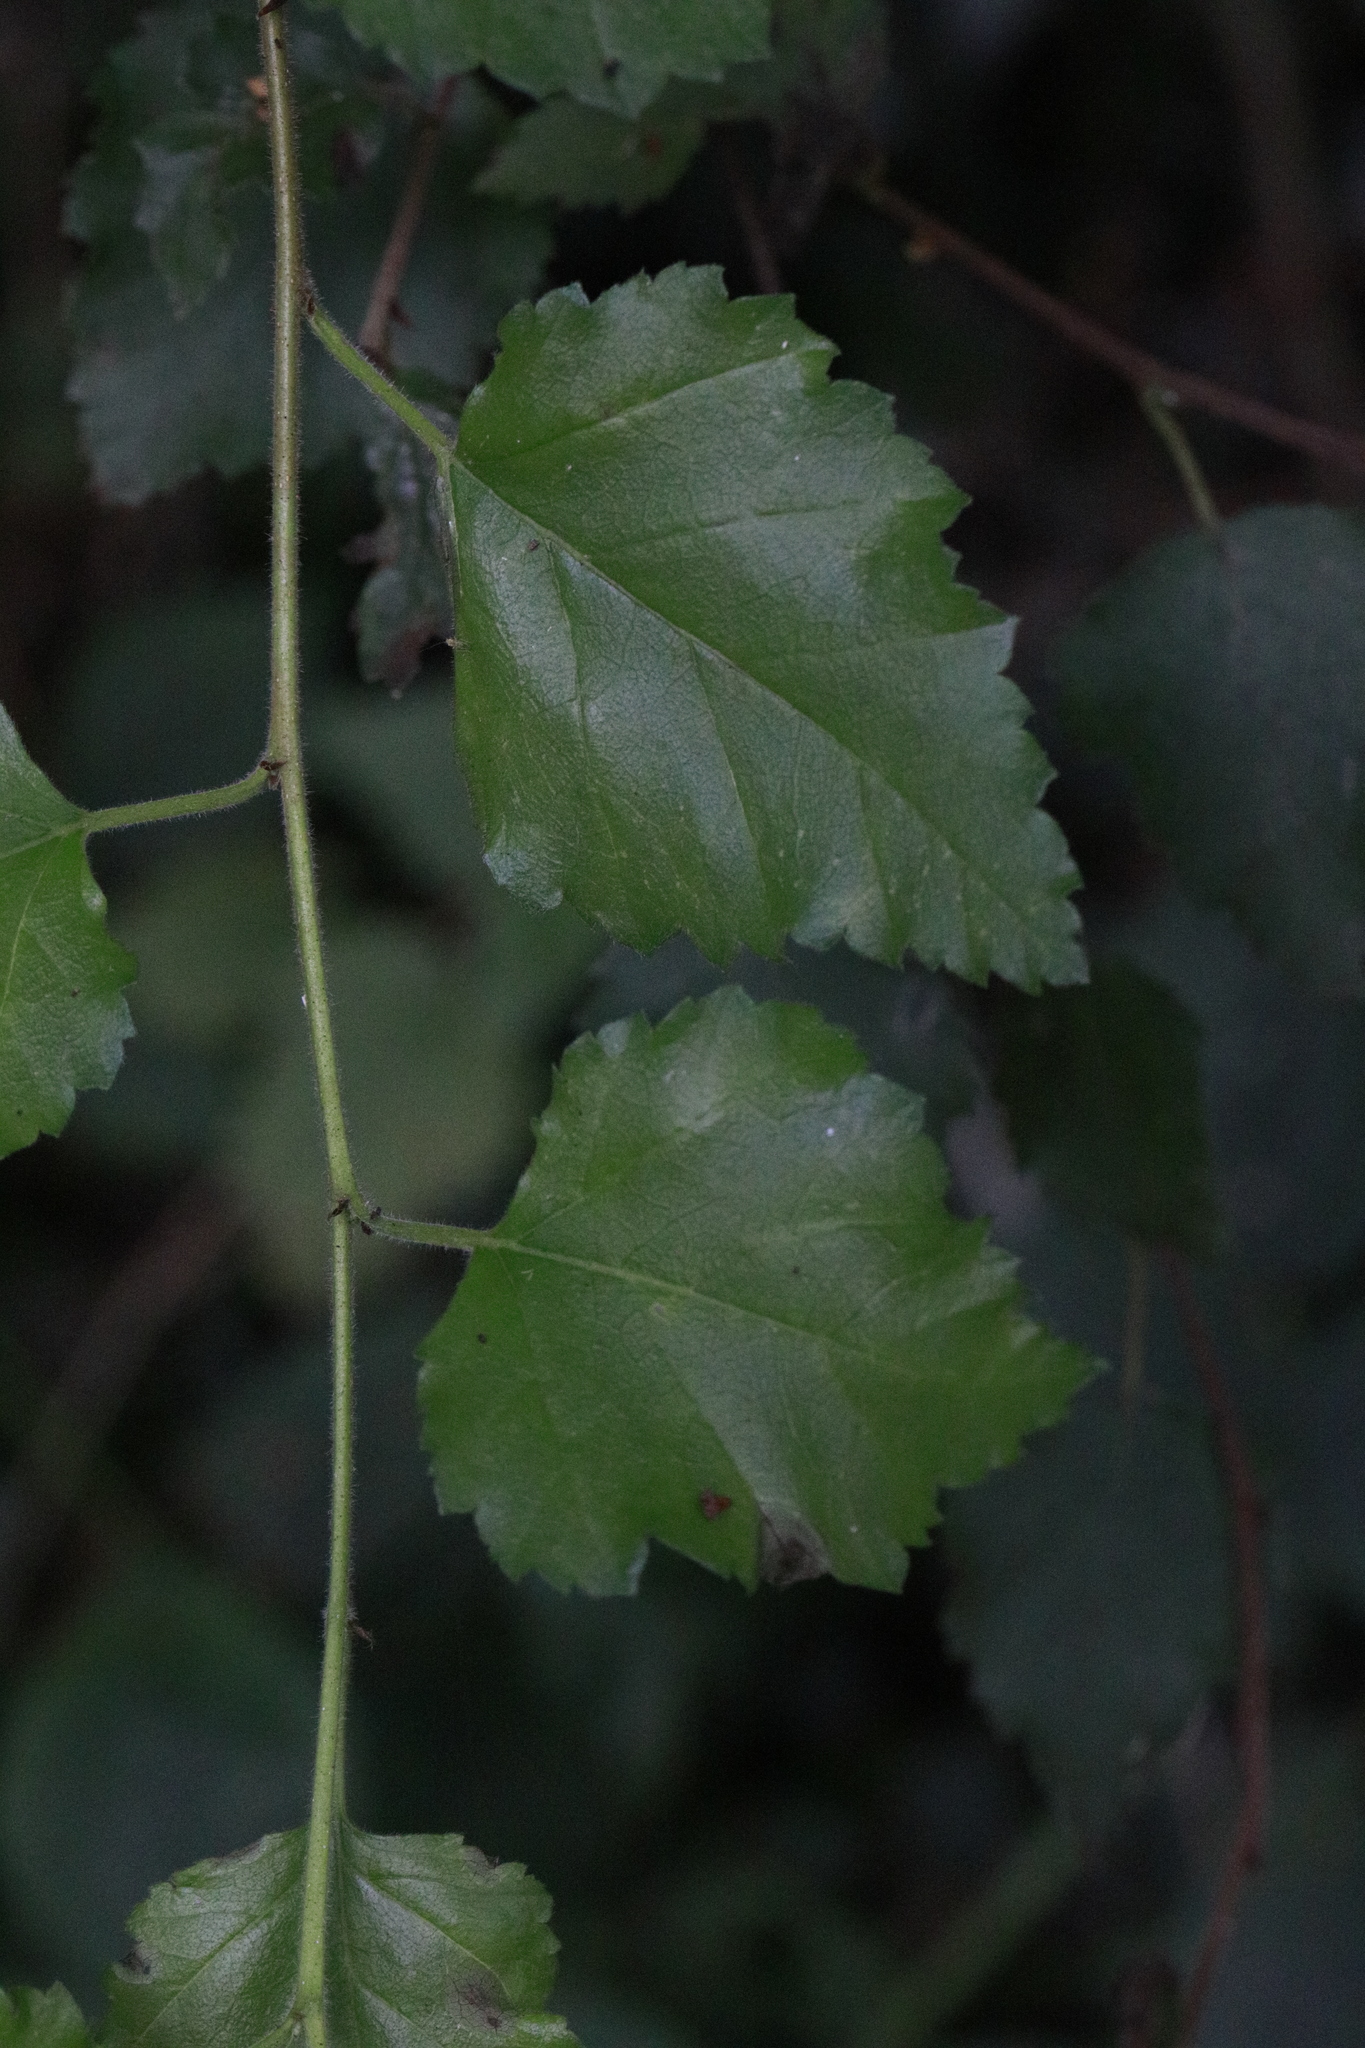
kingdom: Plantae
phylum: Tracheophyta
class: Magnoliopsida
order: Fagales
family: Betulaceae
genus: Betula
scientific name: Betula pubescens
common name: Downy birch
